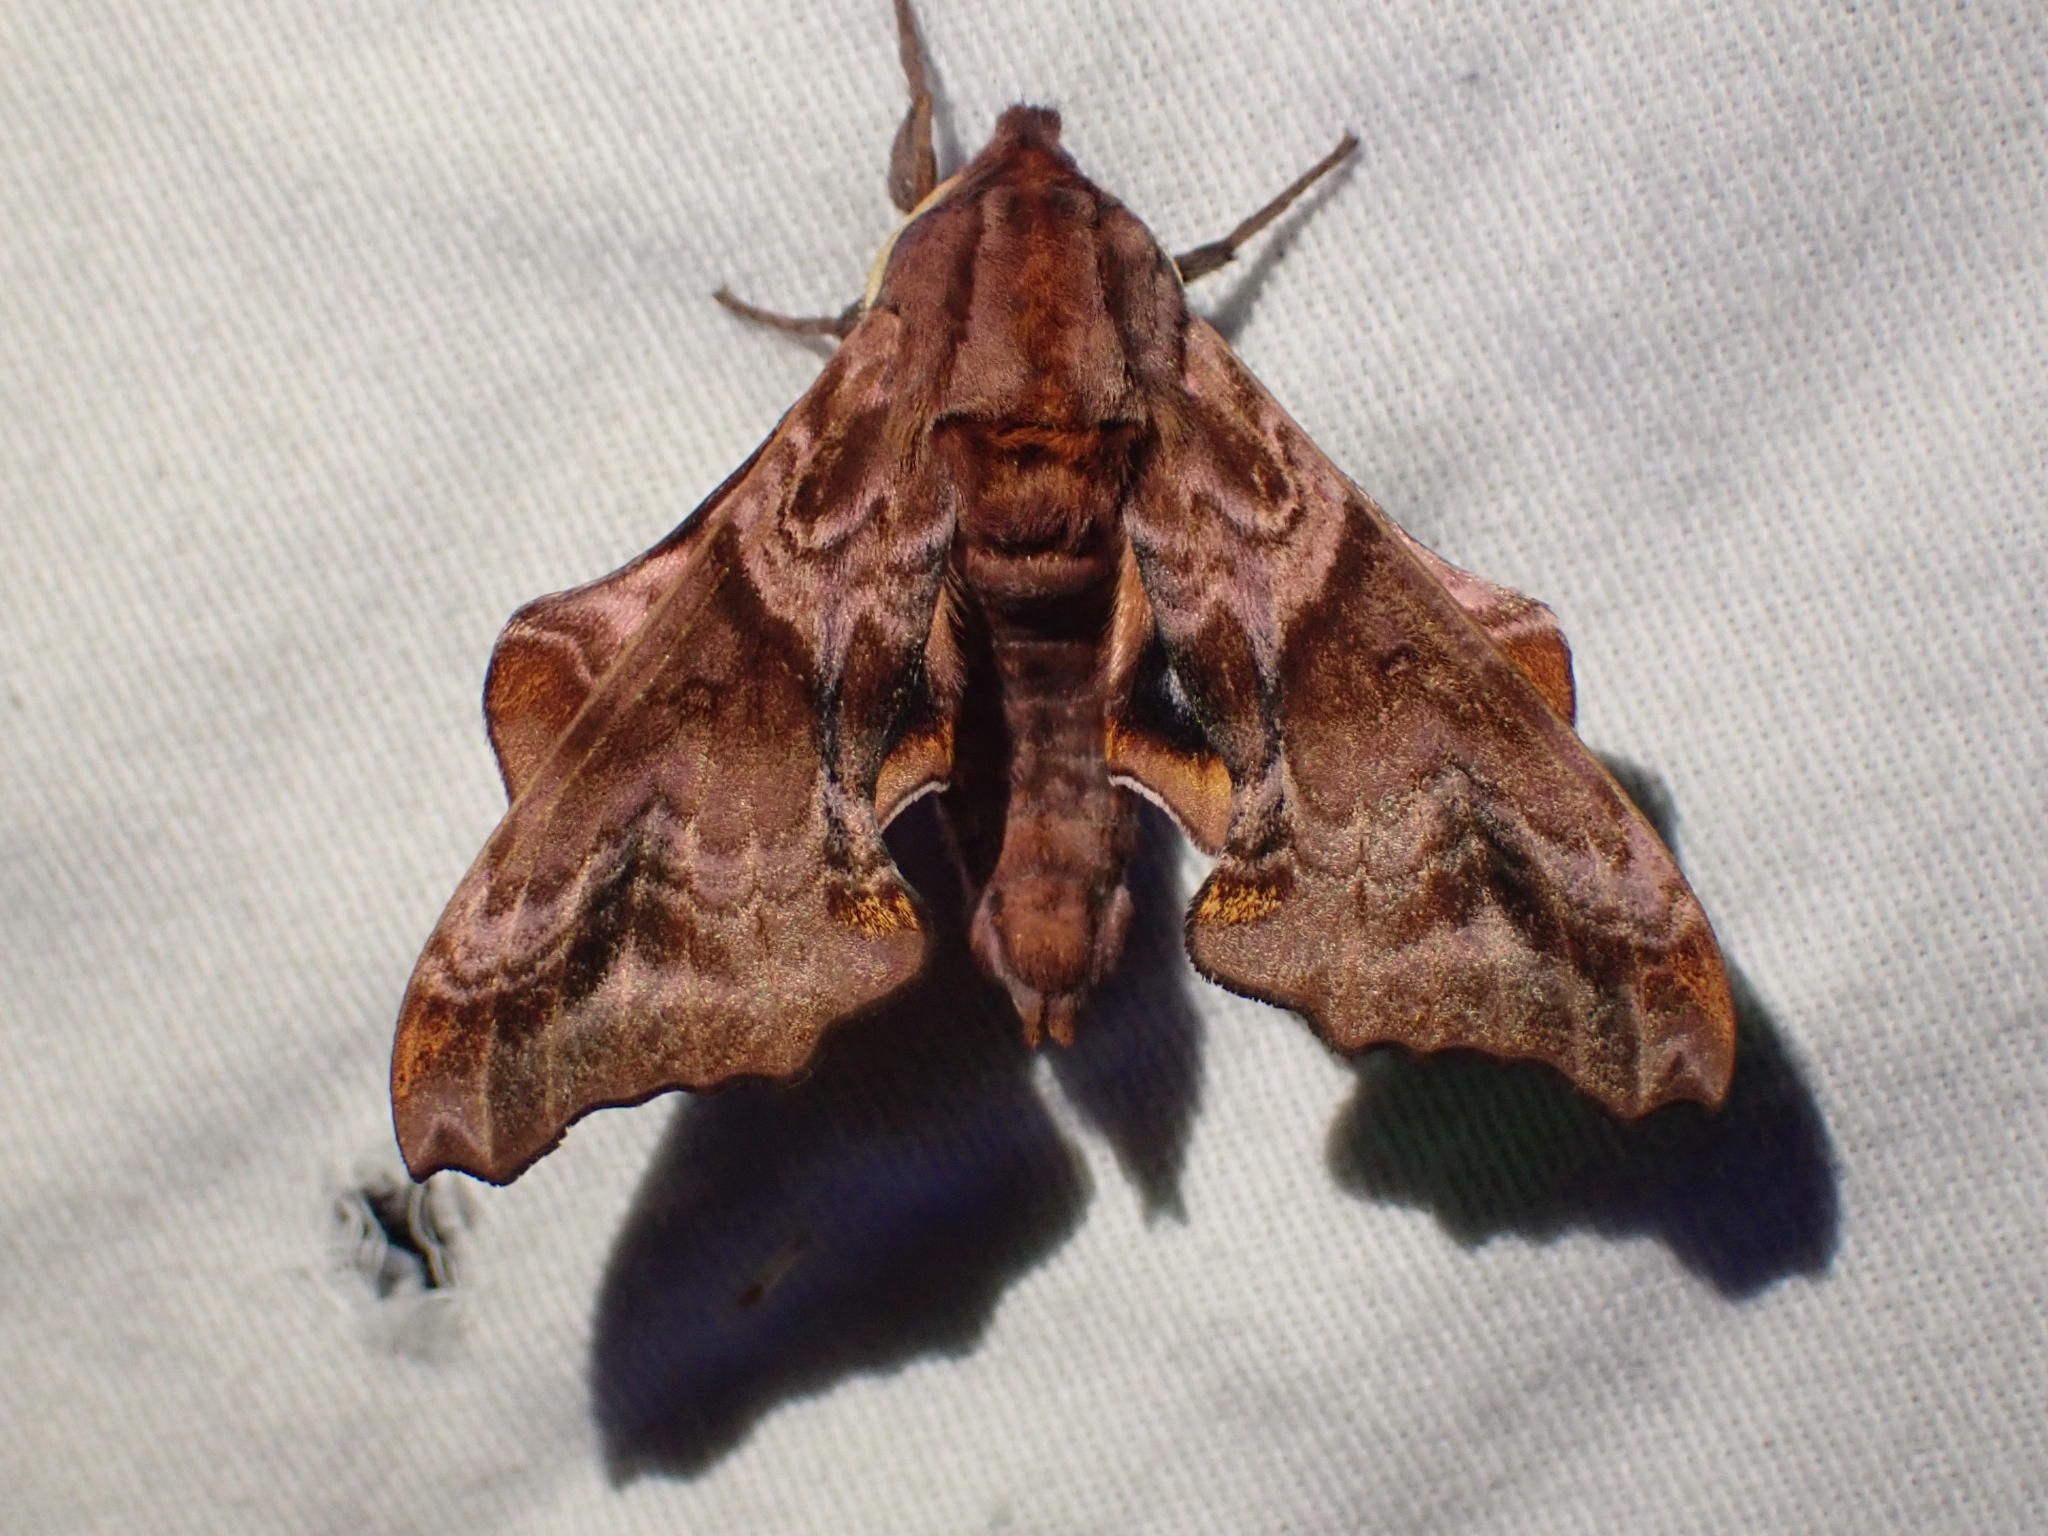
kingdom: Animalia
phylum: Arthropoda
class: Insecta
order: Lepidoptera
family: Sphingidae
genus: Paonias
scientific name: Paonias myops
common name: Small-eyed sphinx
